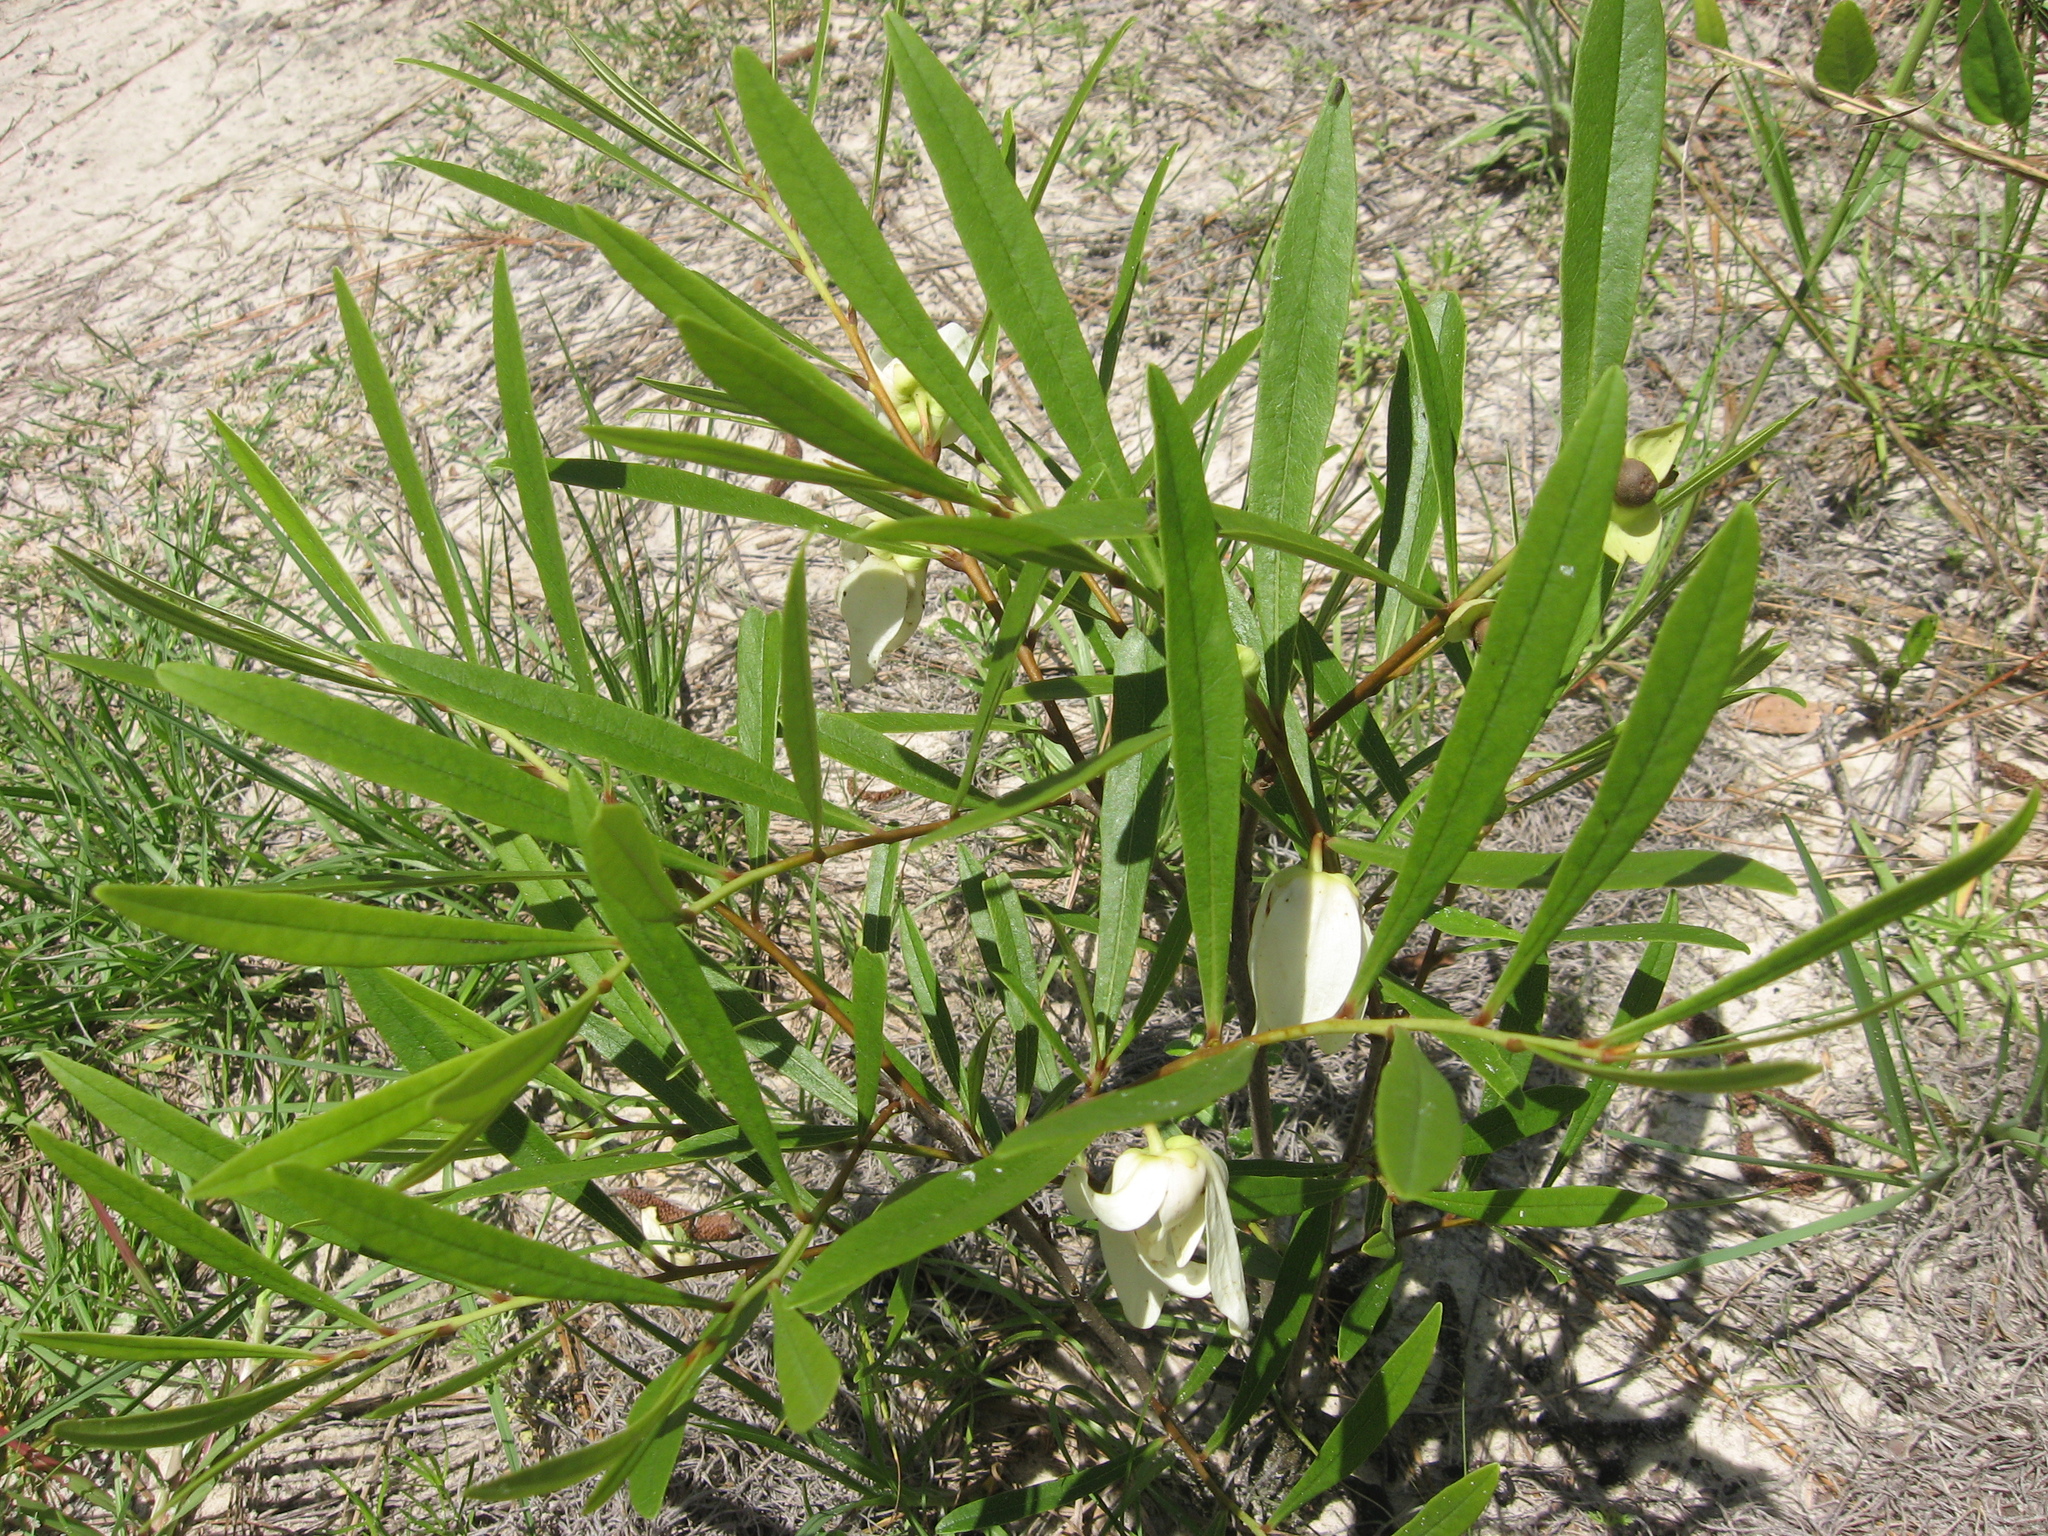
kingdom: Plantae
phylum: Tracheophyta
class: Magnoliopsida
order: Magnoliales
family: Annonaceae
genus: Asimina
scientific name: Asimina longifolia
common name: Polecatbush
